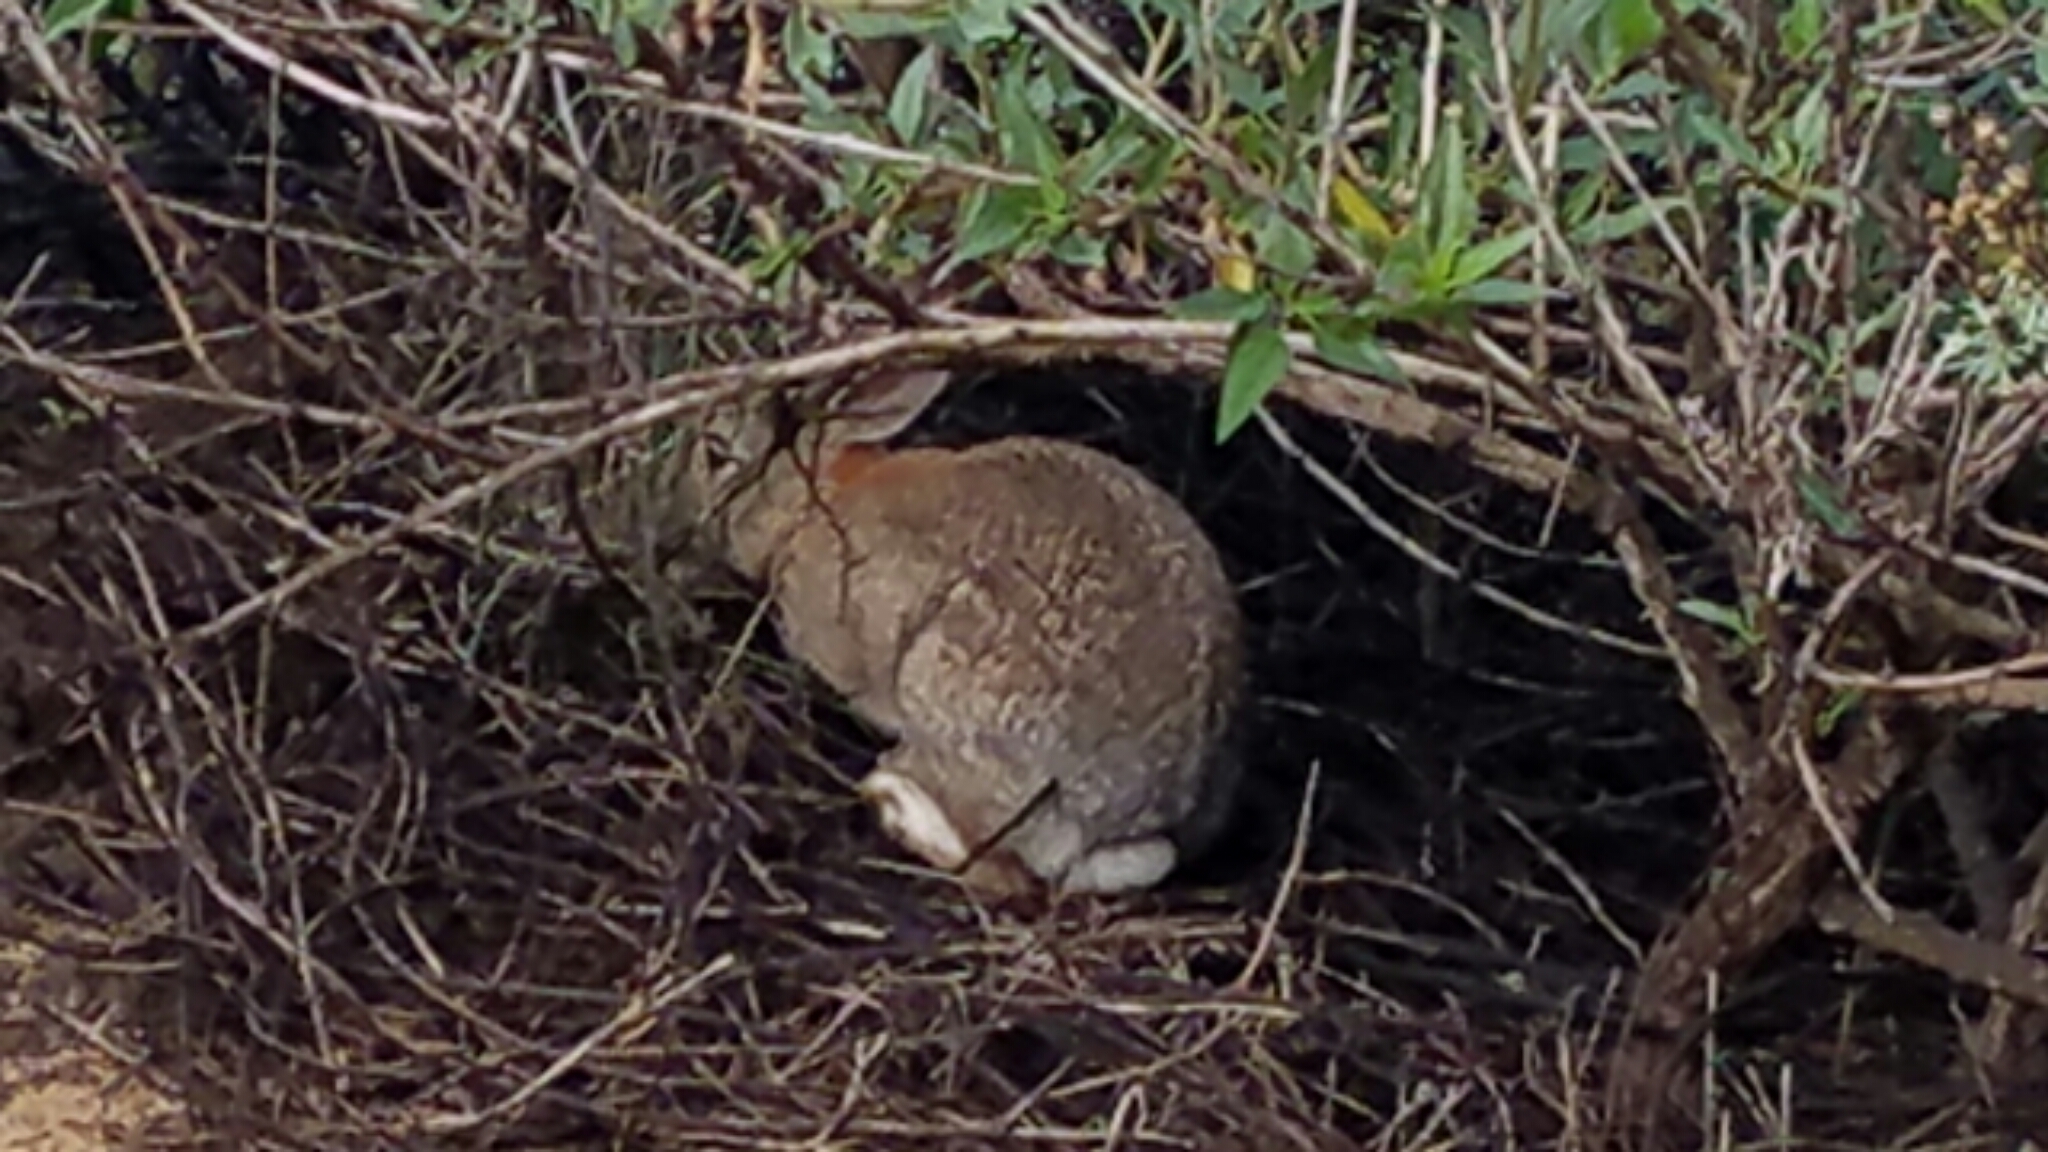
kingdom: Animalia
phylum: Chordata
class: Mammalia
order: Lagomorpha
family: Leporidae
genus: Sylvilagus
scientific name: Sylvilagus audubonii
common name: Desert cottontail
